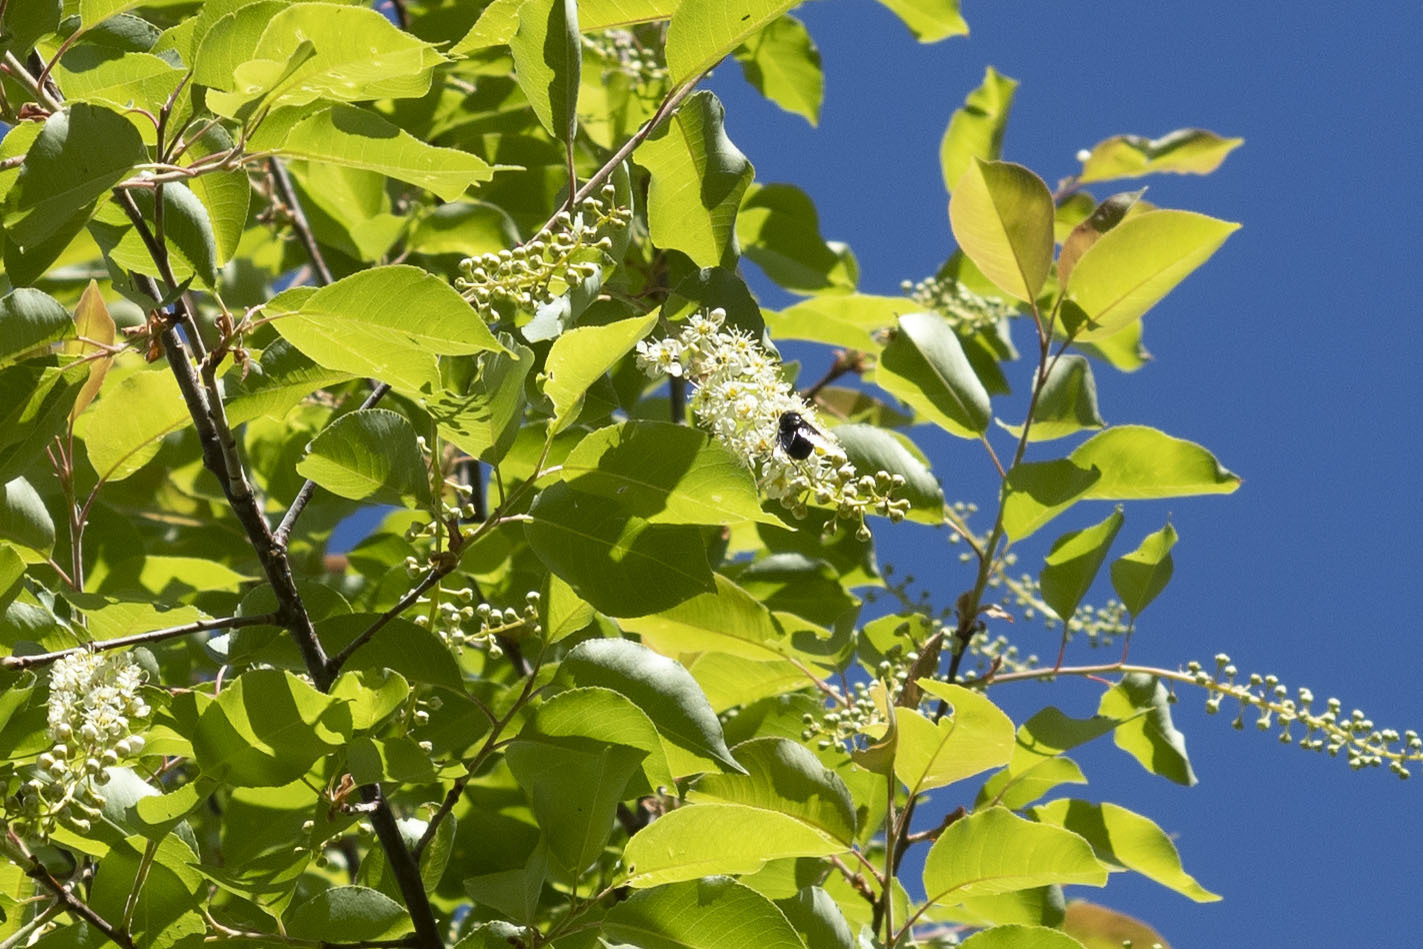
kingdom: Plantae
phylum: Tracheophyta
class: Magnoliopsida
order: Rosales
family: Rosaceae
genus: Prunus
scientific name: Prunus serotina
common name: Black cherry
